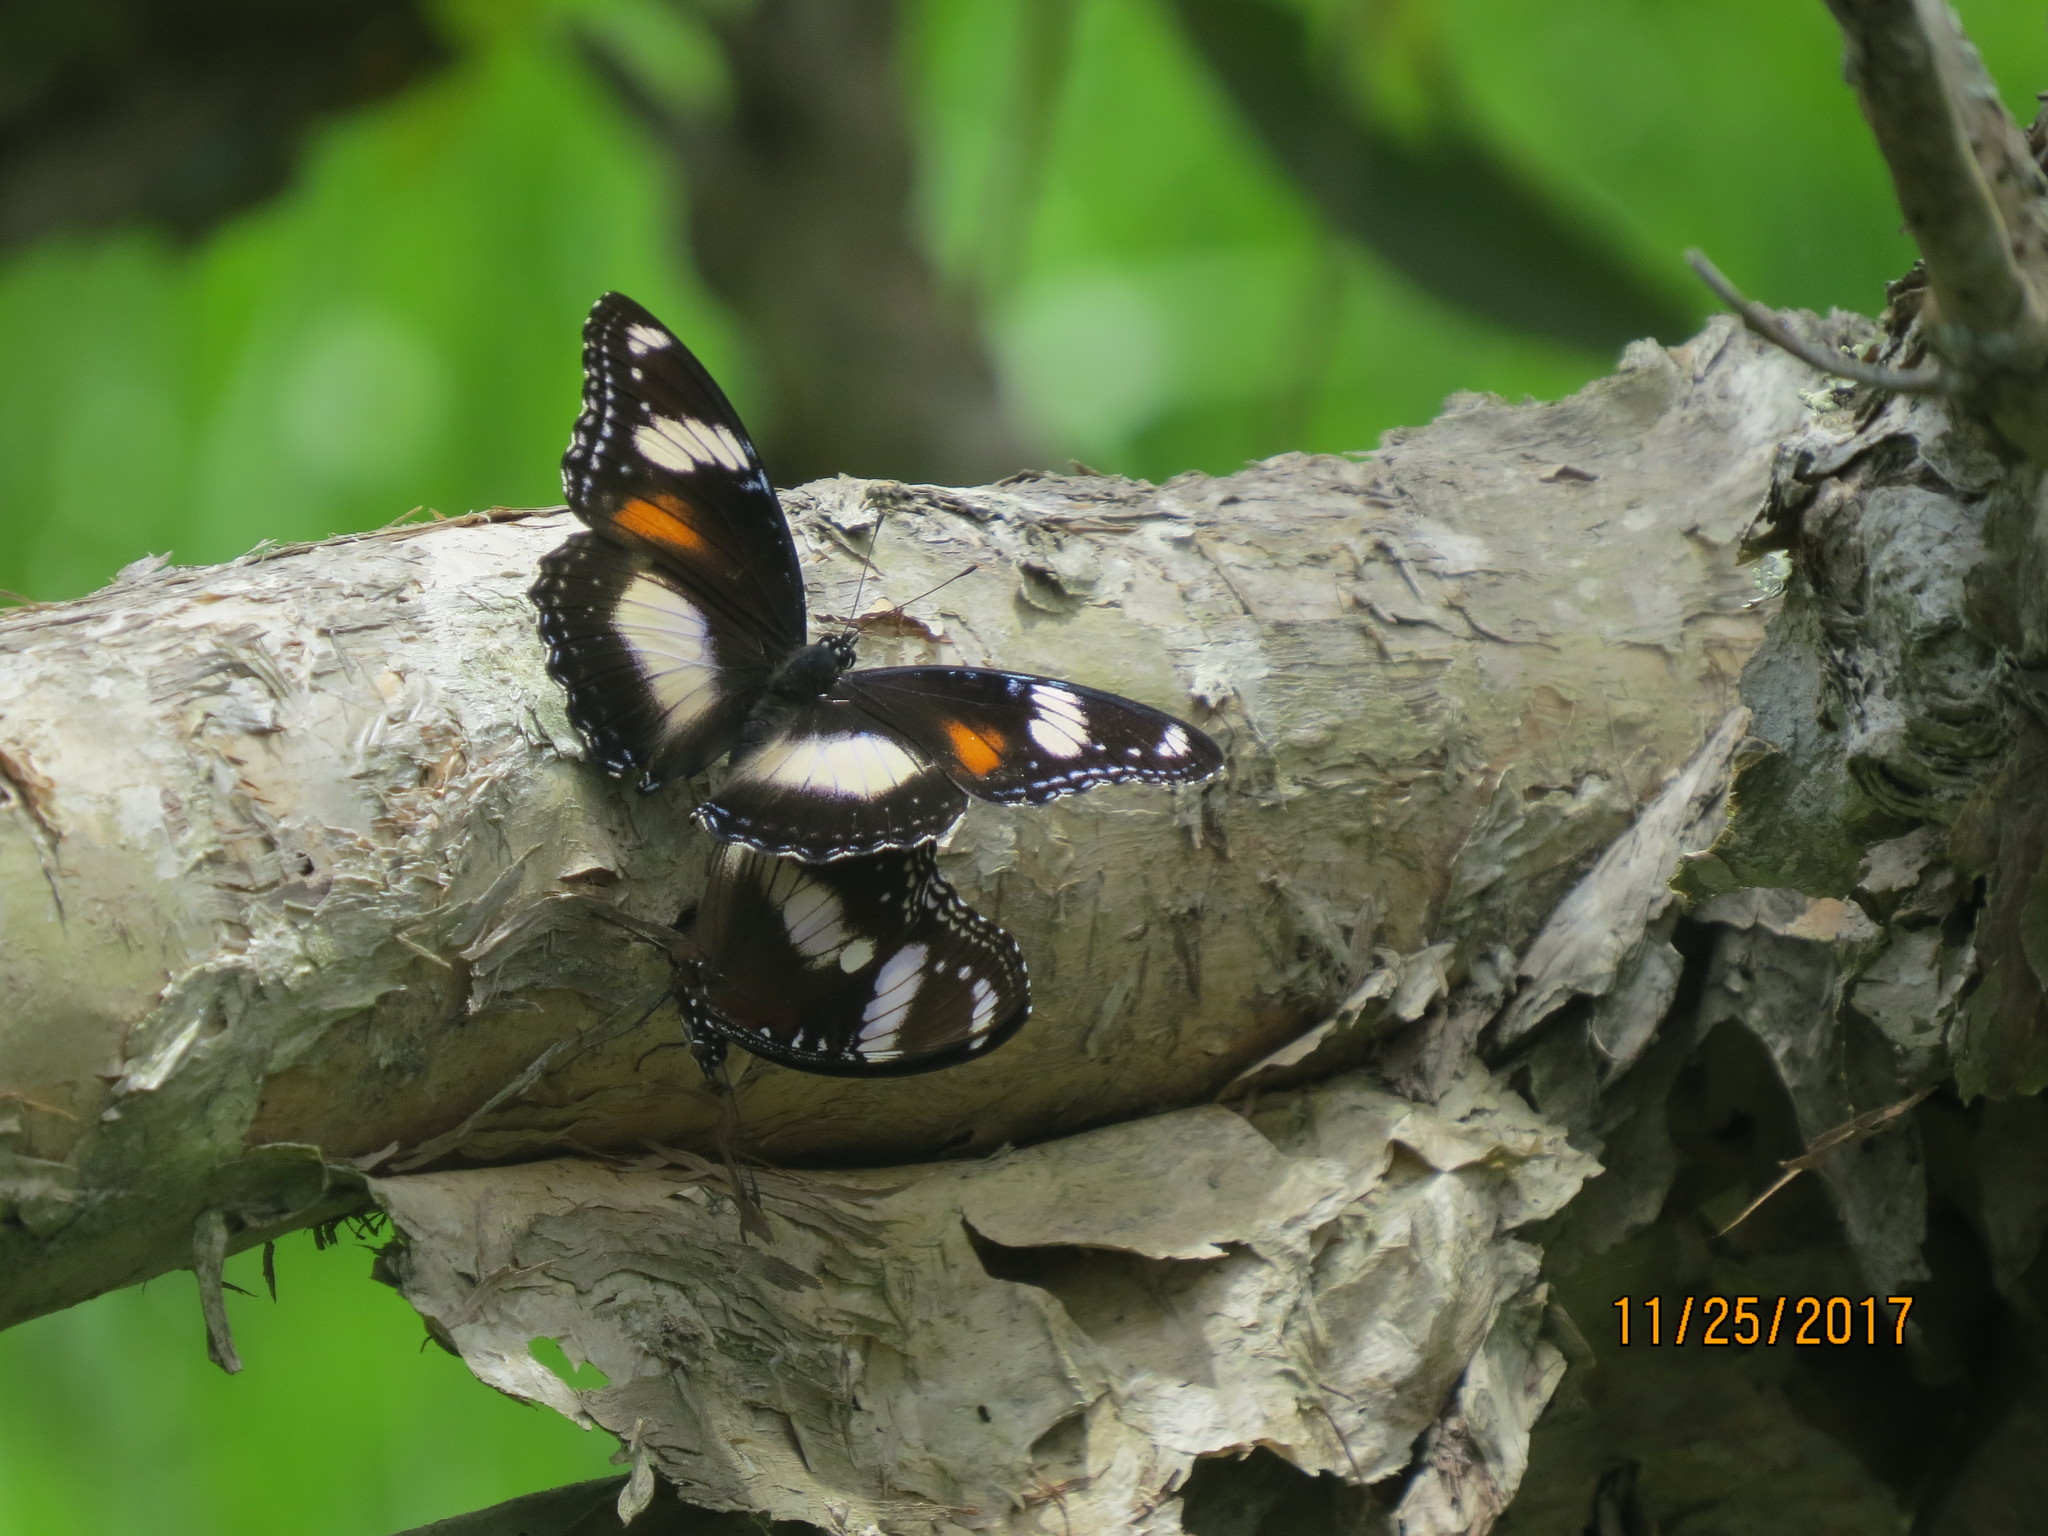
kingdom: Animalia
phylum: Arthropoda
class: Insecta
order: Lepidoptera
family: Nymphalidae
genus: Hypolimnas
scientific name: Hypolimnas bolina
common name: Great eggfly
